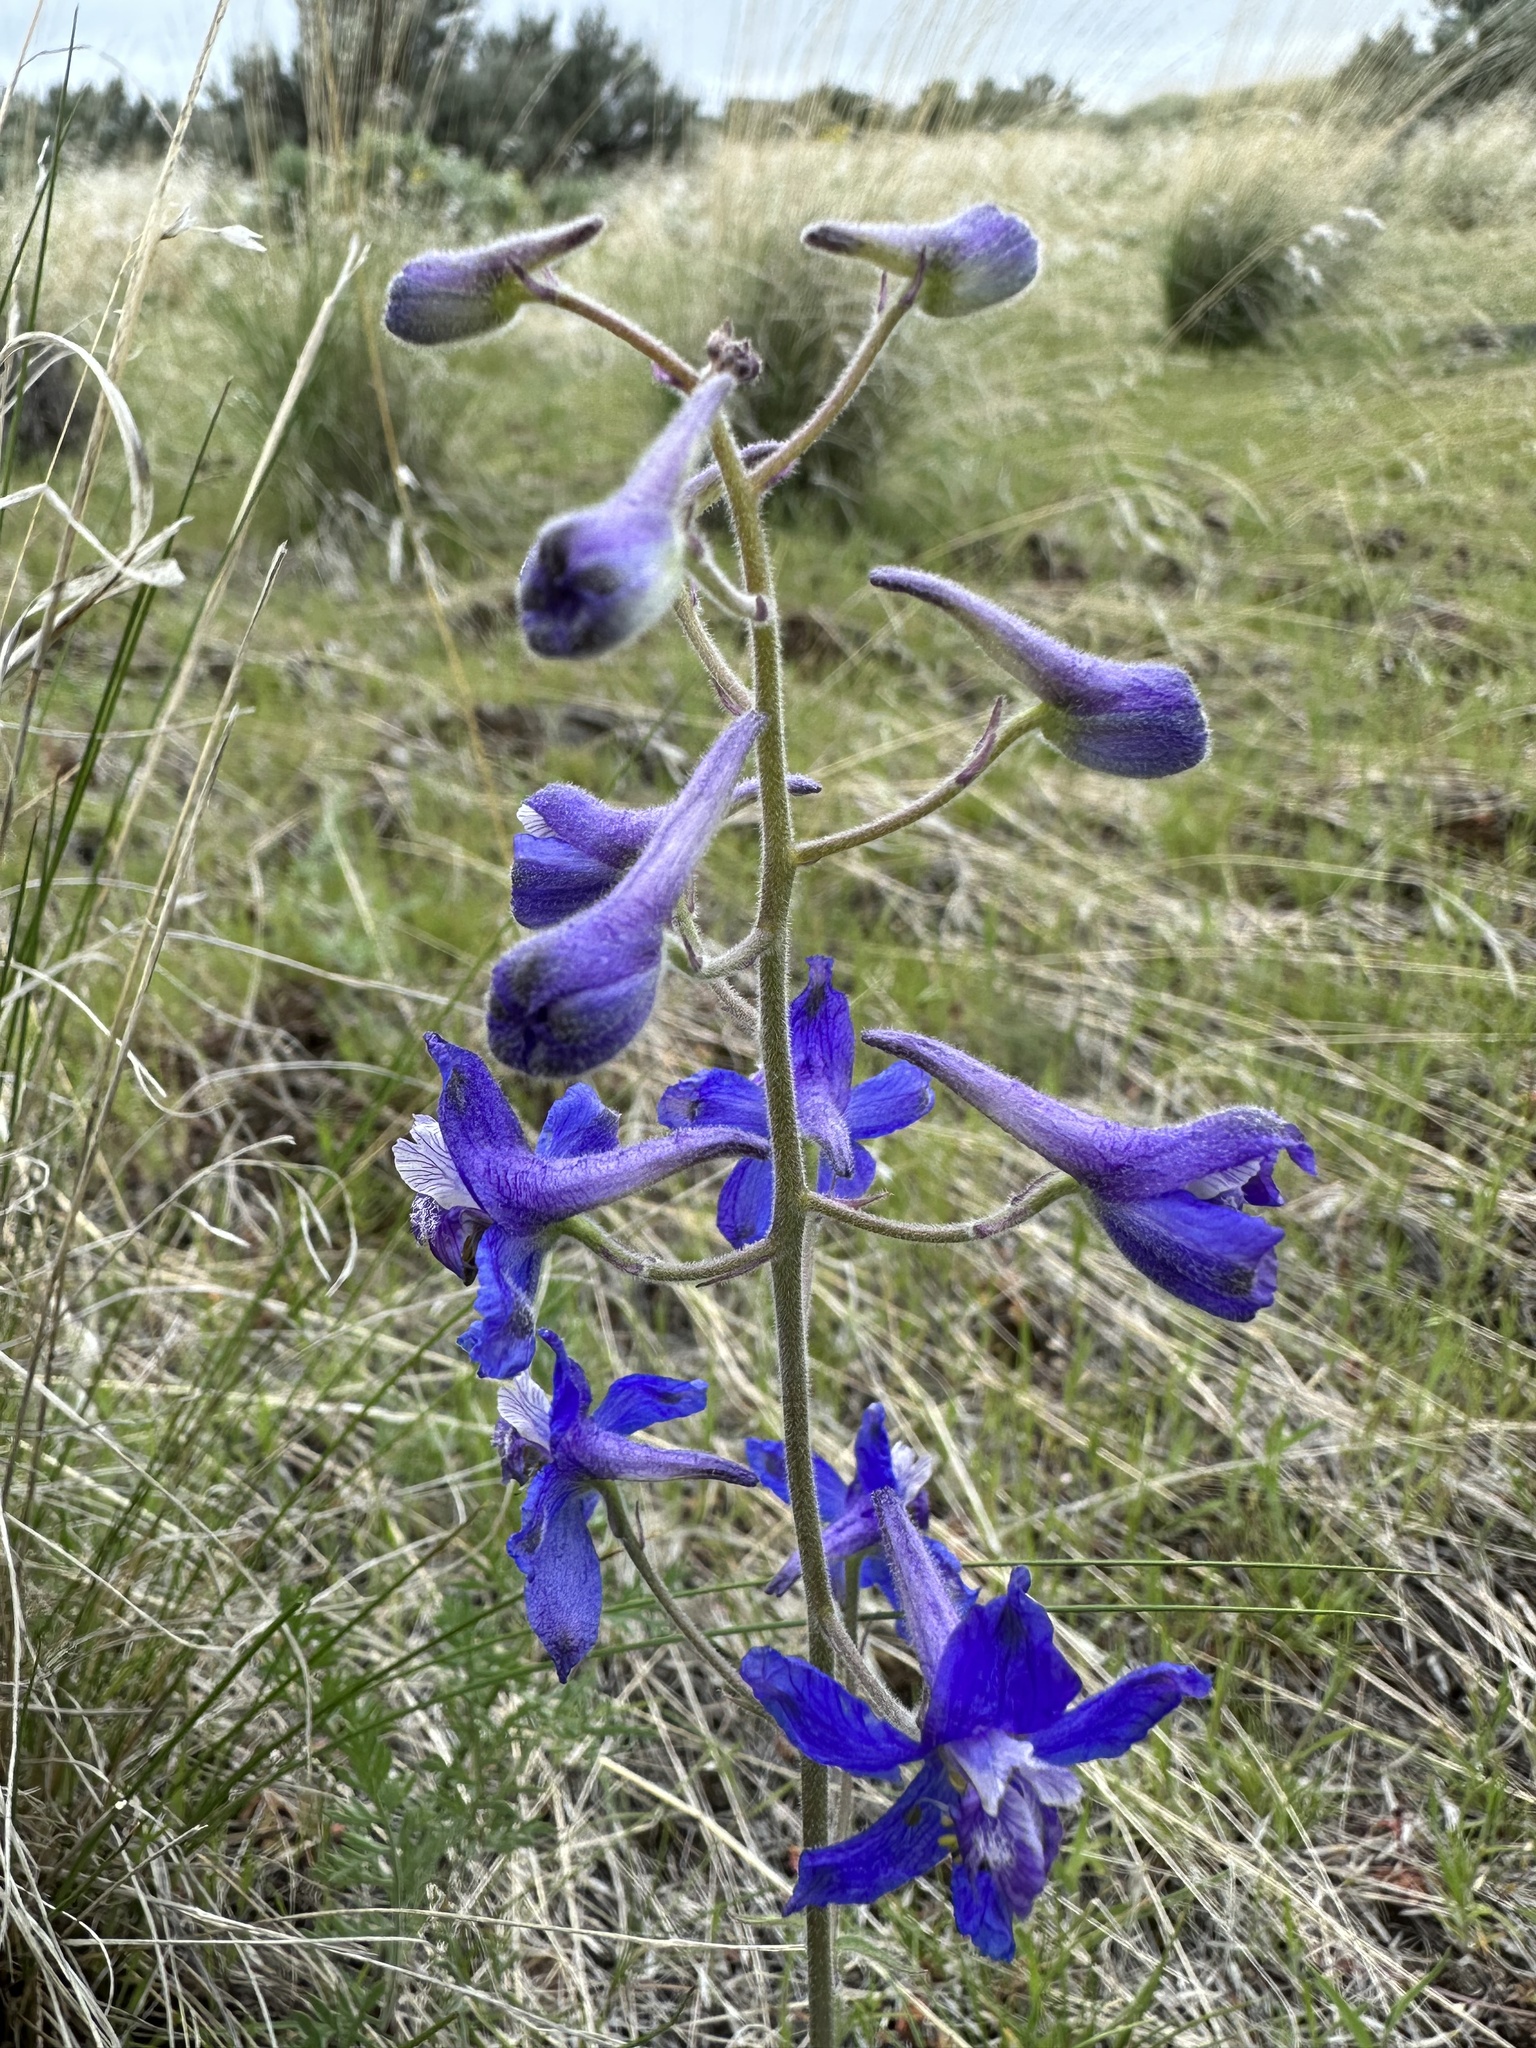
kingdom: Plantae
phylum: Tracheophyta
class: Magnoliopsida
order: Ranunculales
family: Ranunculaceae
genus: Delphinium
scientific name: Delphinium nuttallianum
